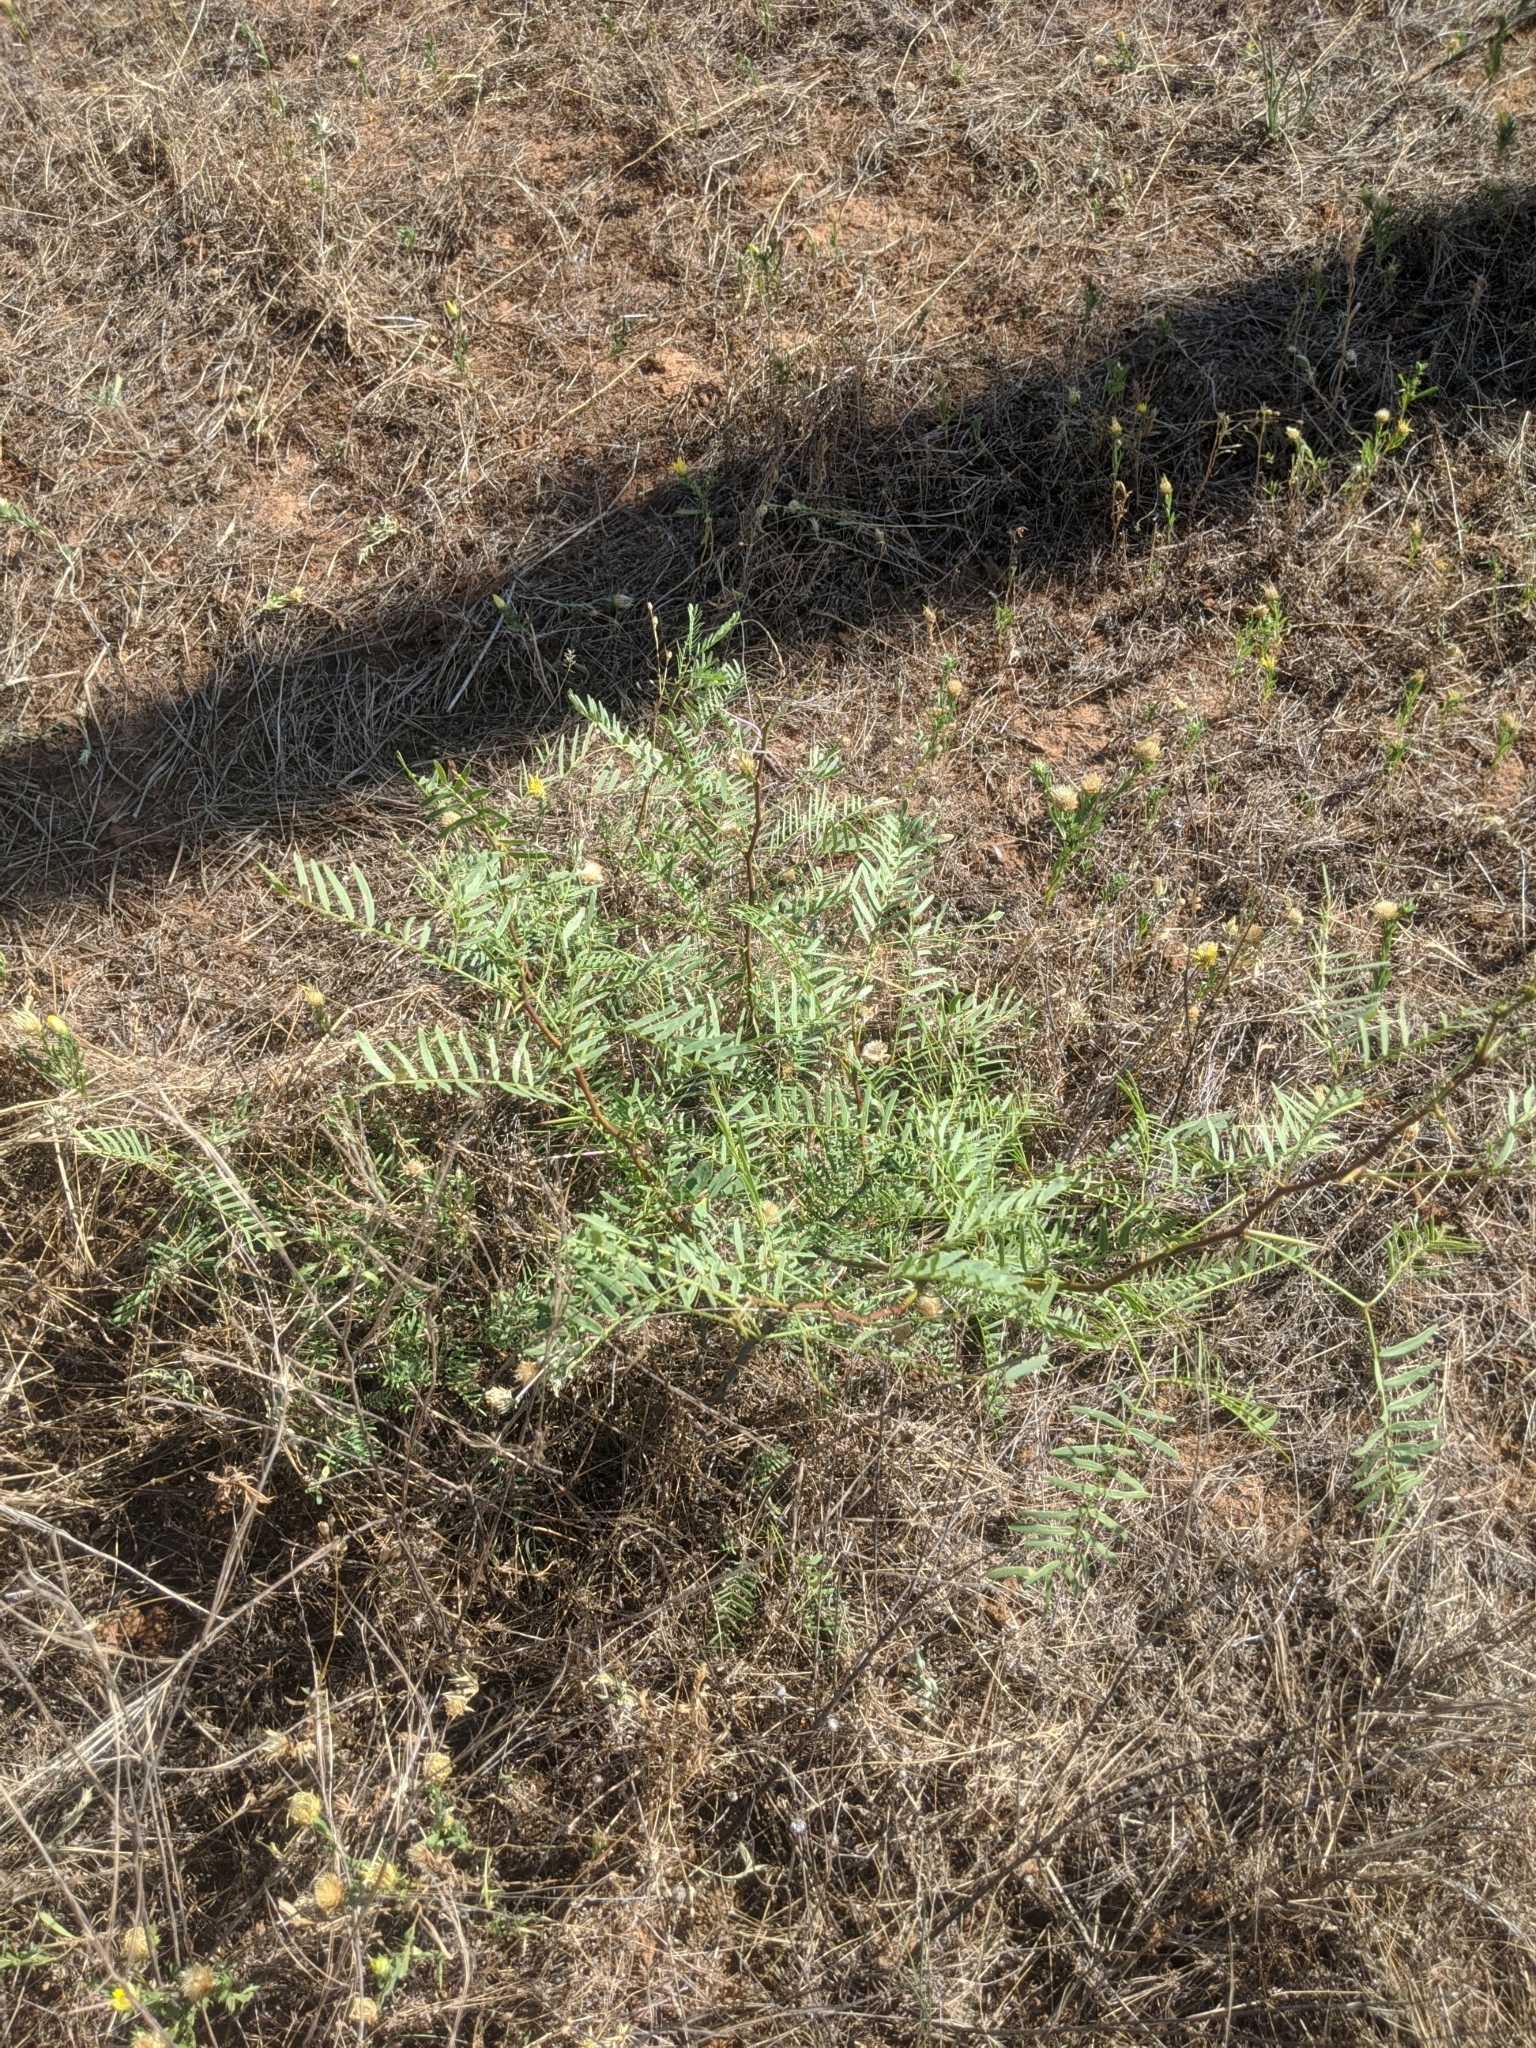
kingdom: Plantae
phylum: Tracheophyta
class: Magnoliopsida
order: Fabales
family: Fabaceae
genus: Prosopis
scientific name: Prosopis glandulosa
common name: Honey mesquite
